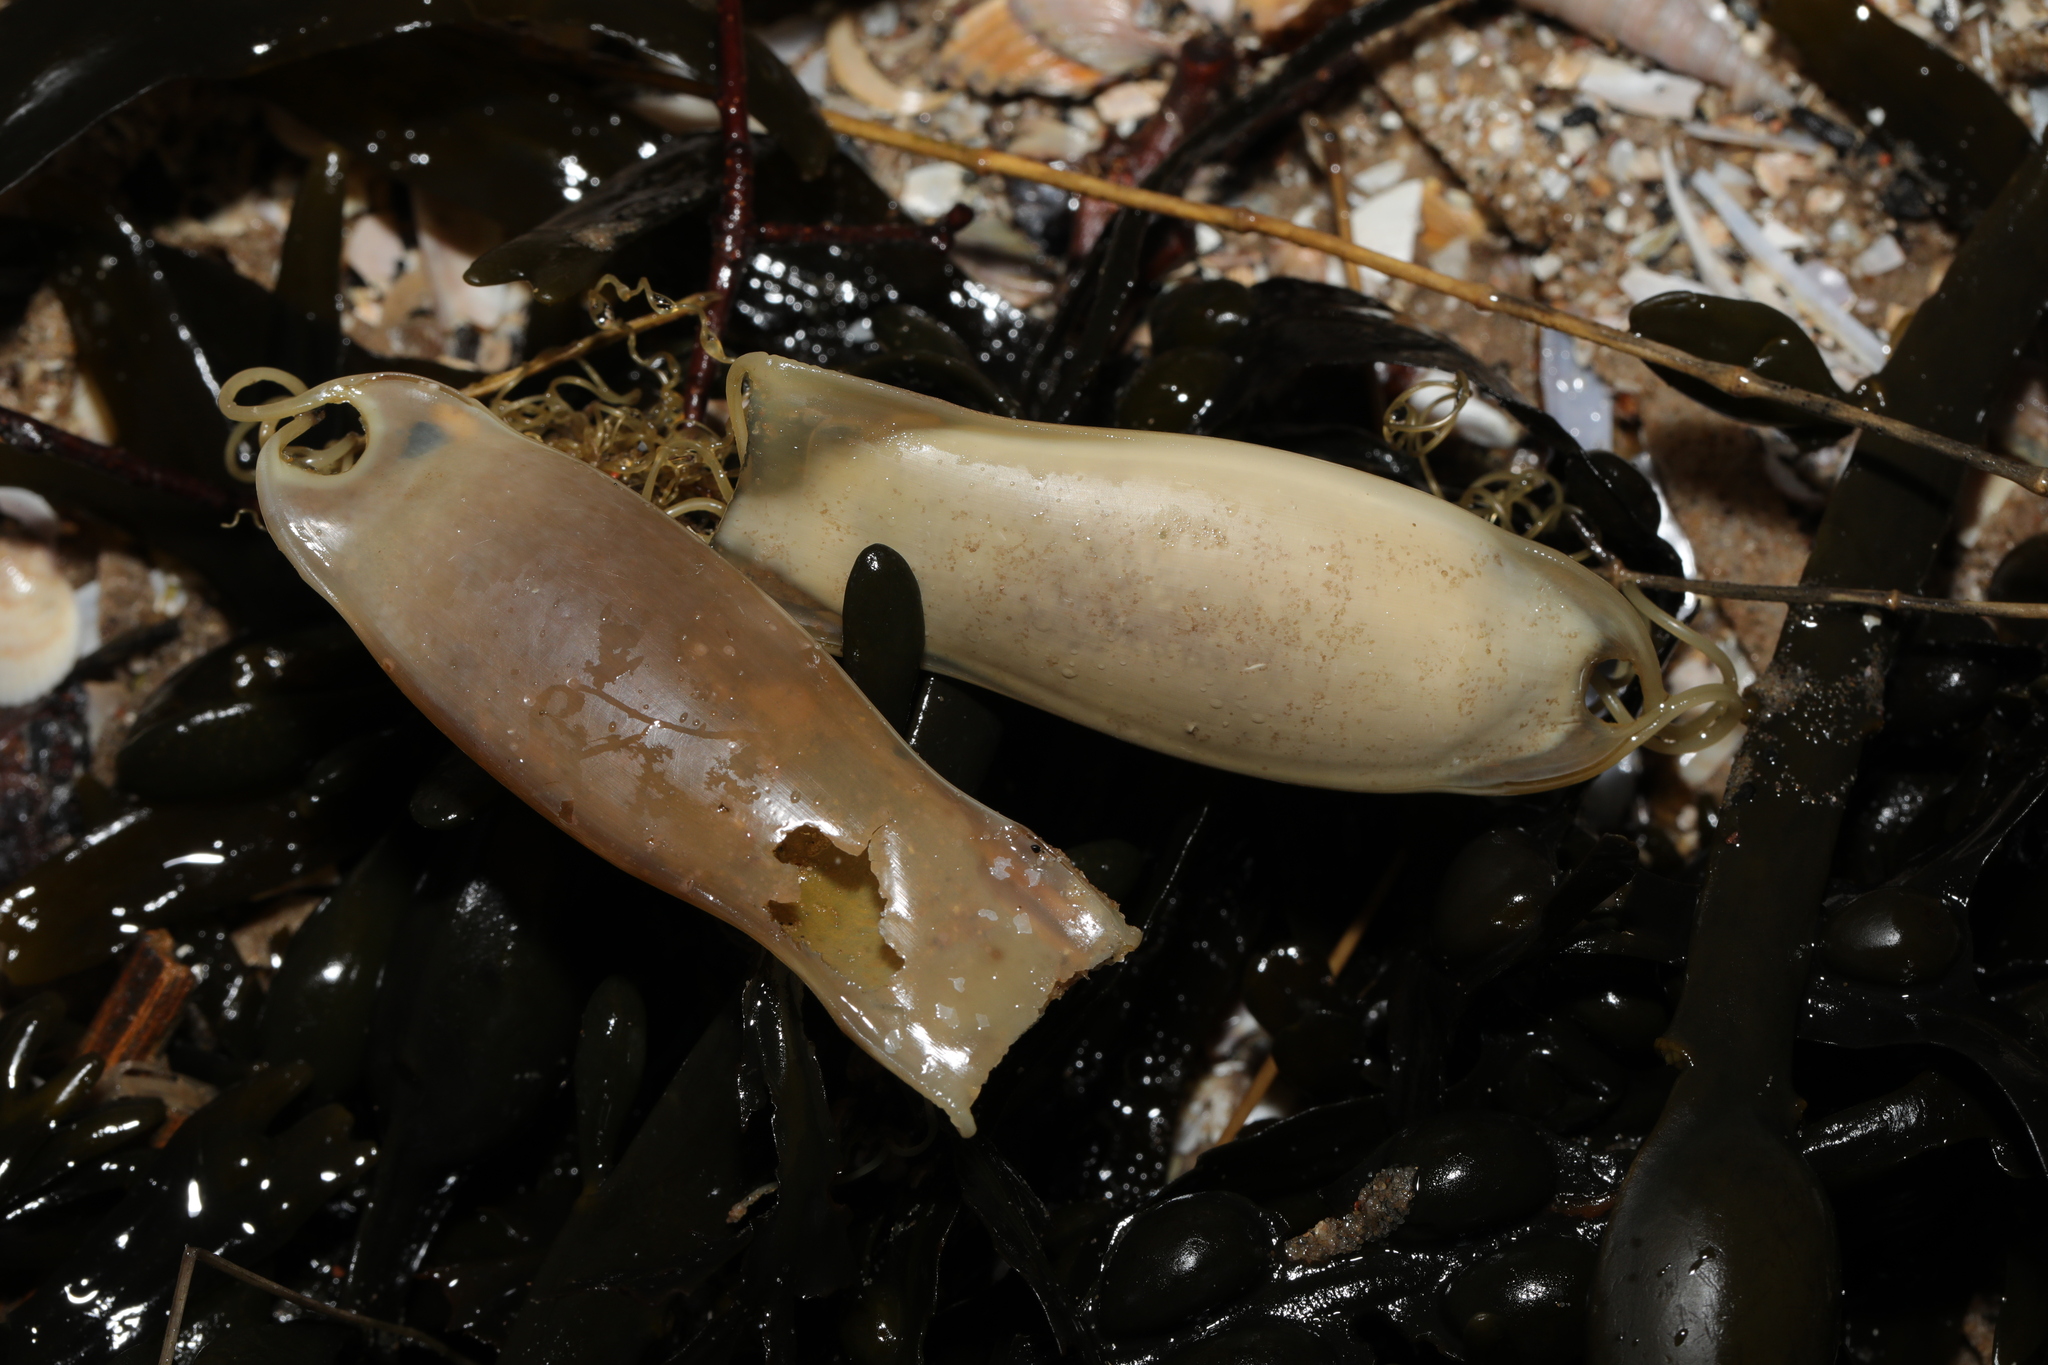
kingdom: Animalia
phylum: Chordata
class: Elasmobranchii
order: Carcharhiniformes
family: Scyliorhinidae
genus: Scyliorhinus
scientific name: Scyliorhinus canicula
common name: Lesser spotted dogfish
